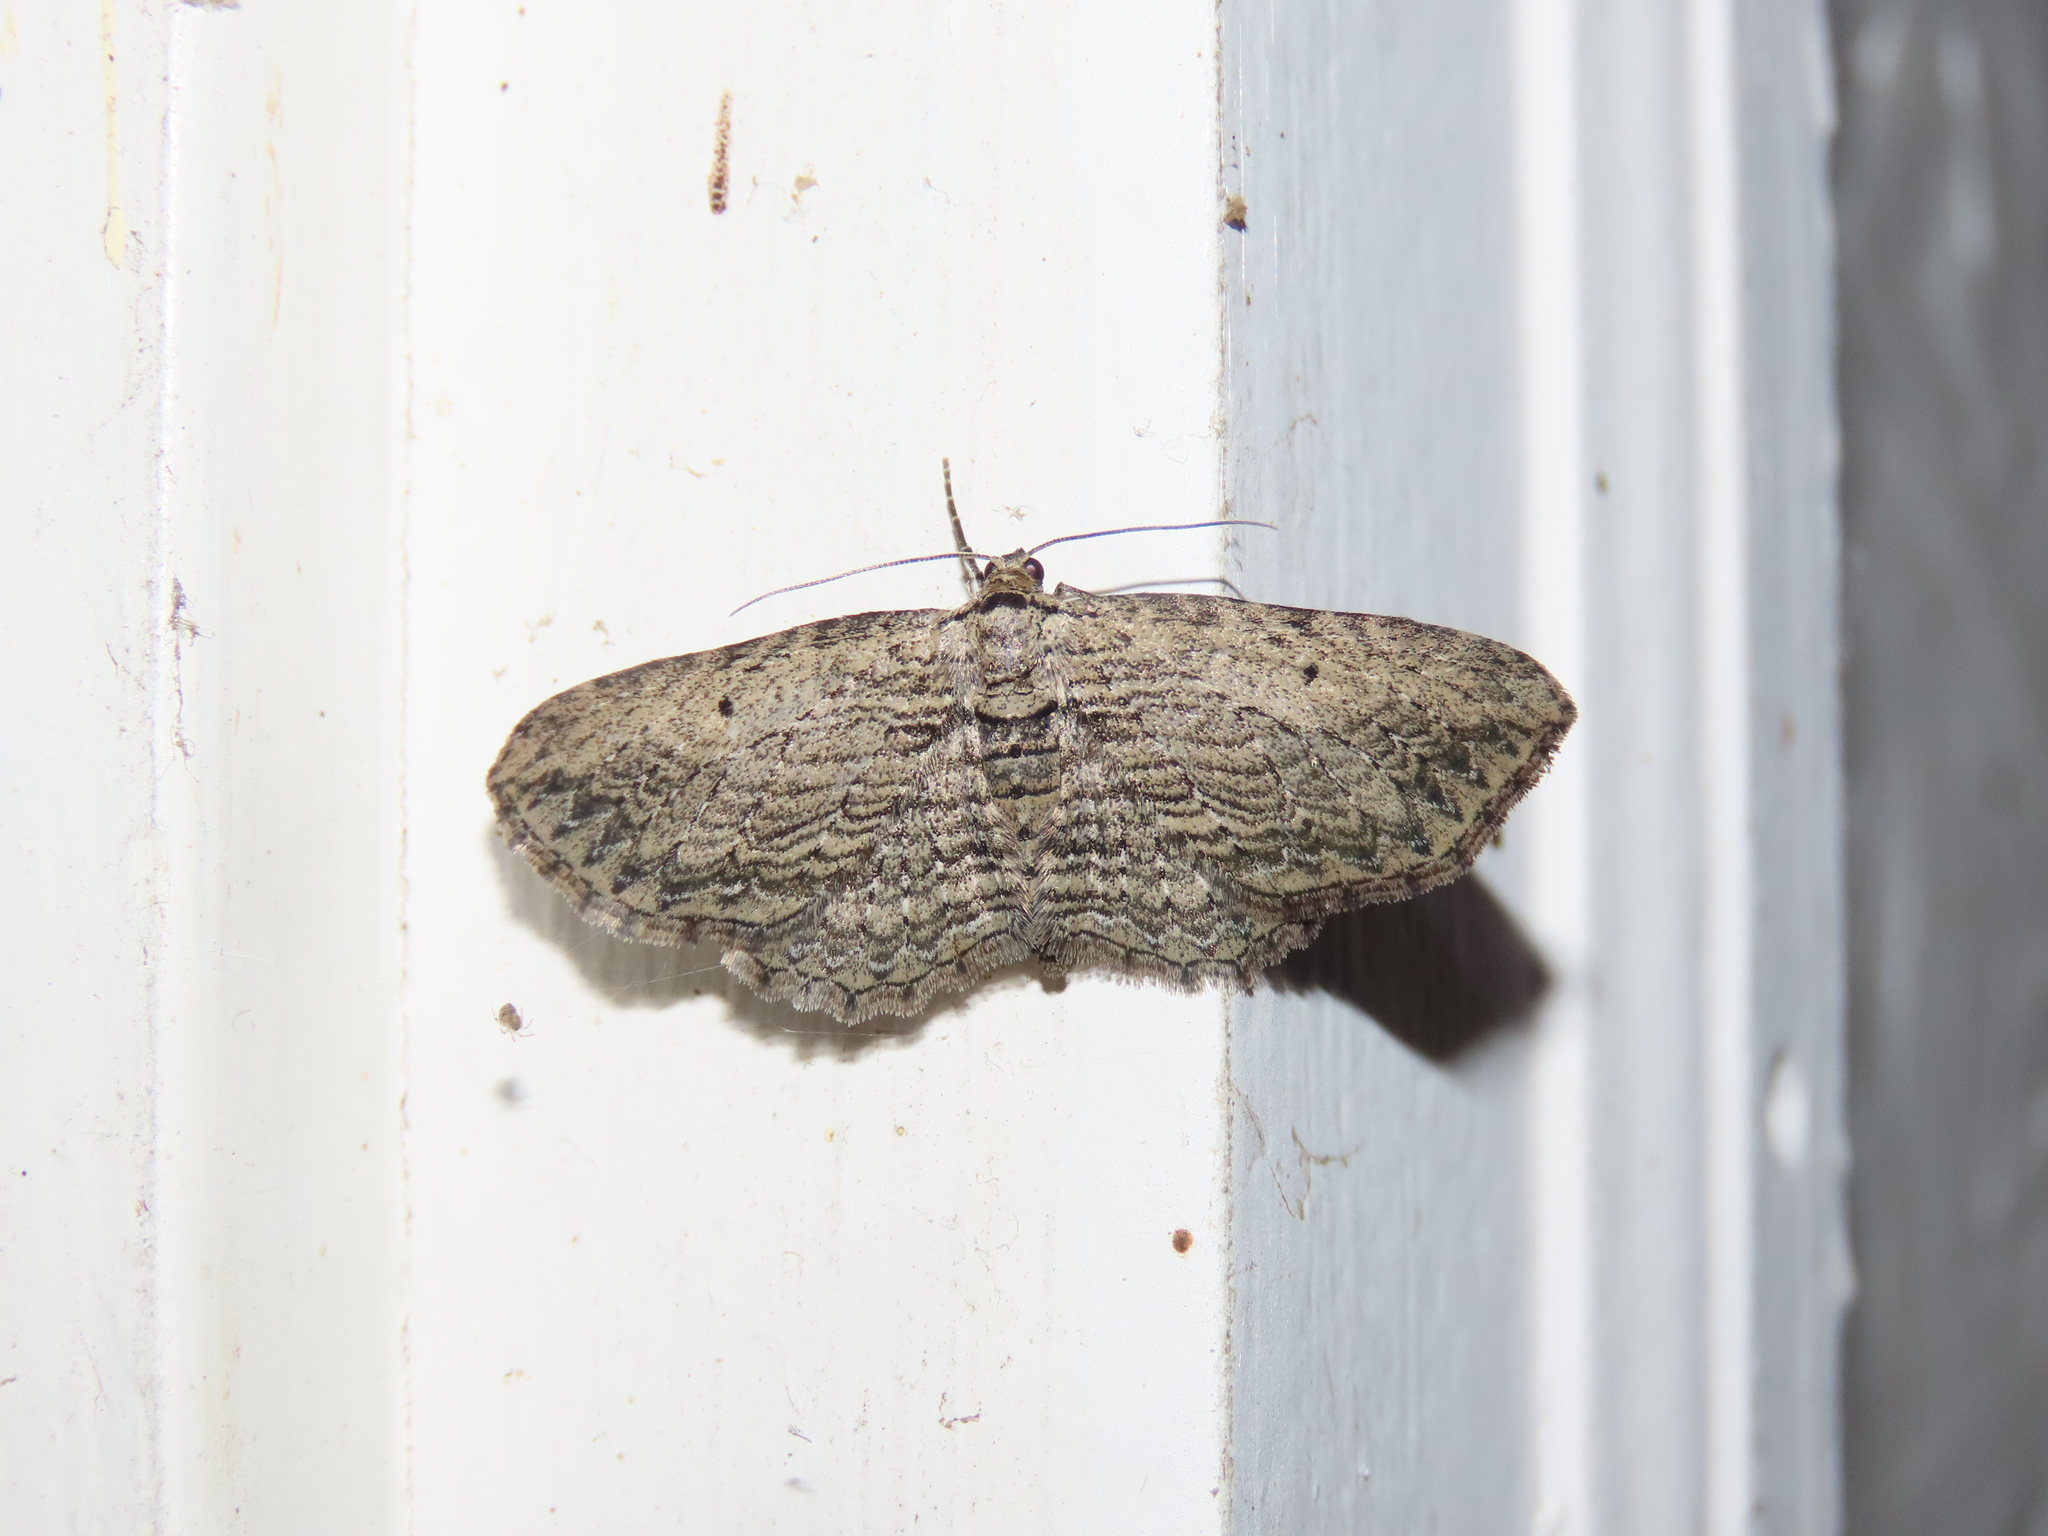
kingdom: Animalia
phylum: Arthropoda
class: Insecta
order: Lepidoptera
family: Geometridae
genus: Horisme
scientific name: Horisme intestinata
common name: Brown bark carpet
